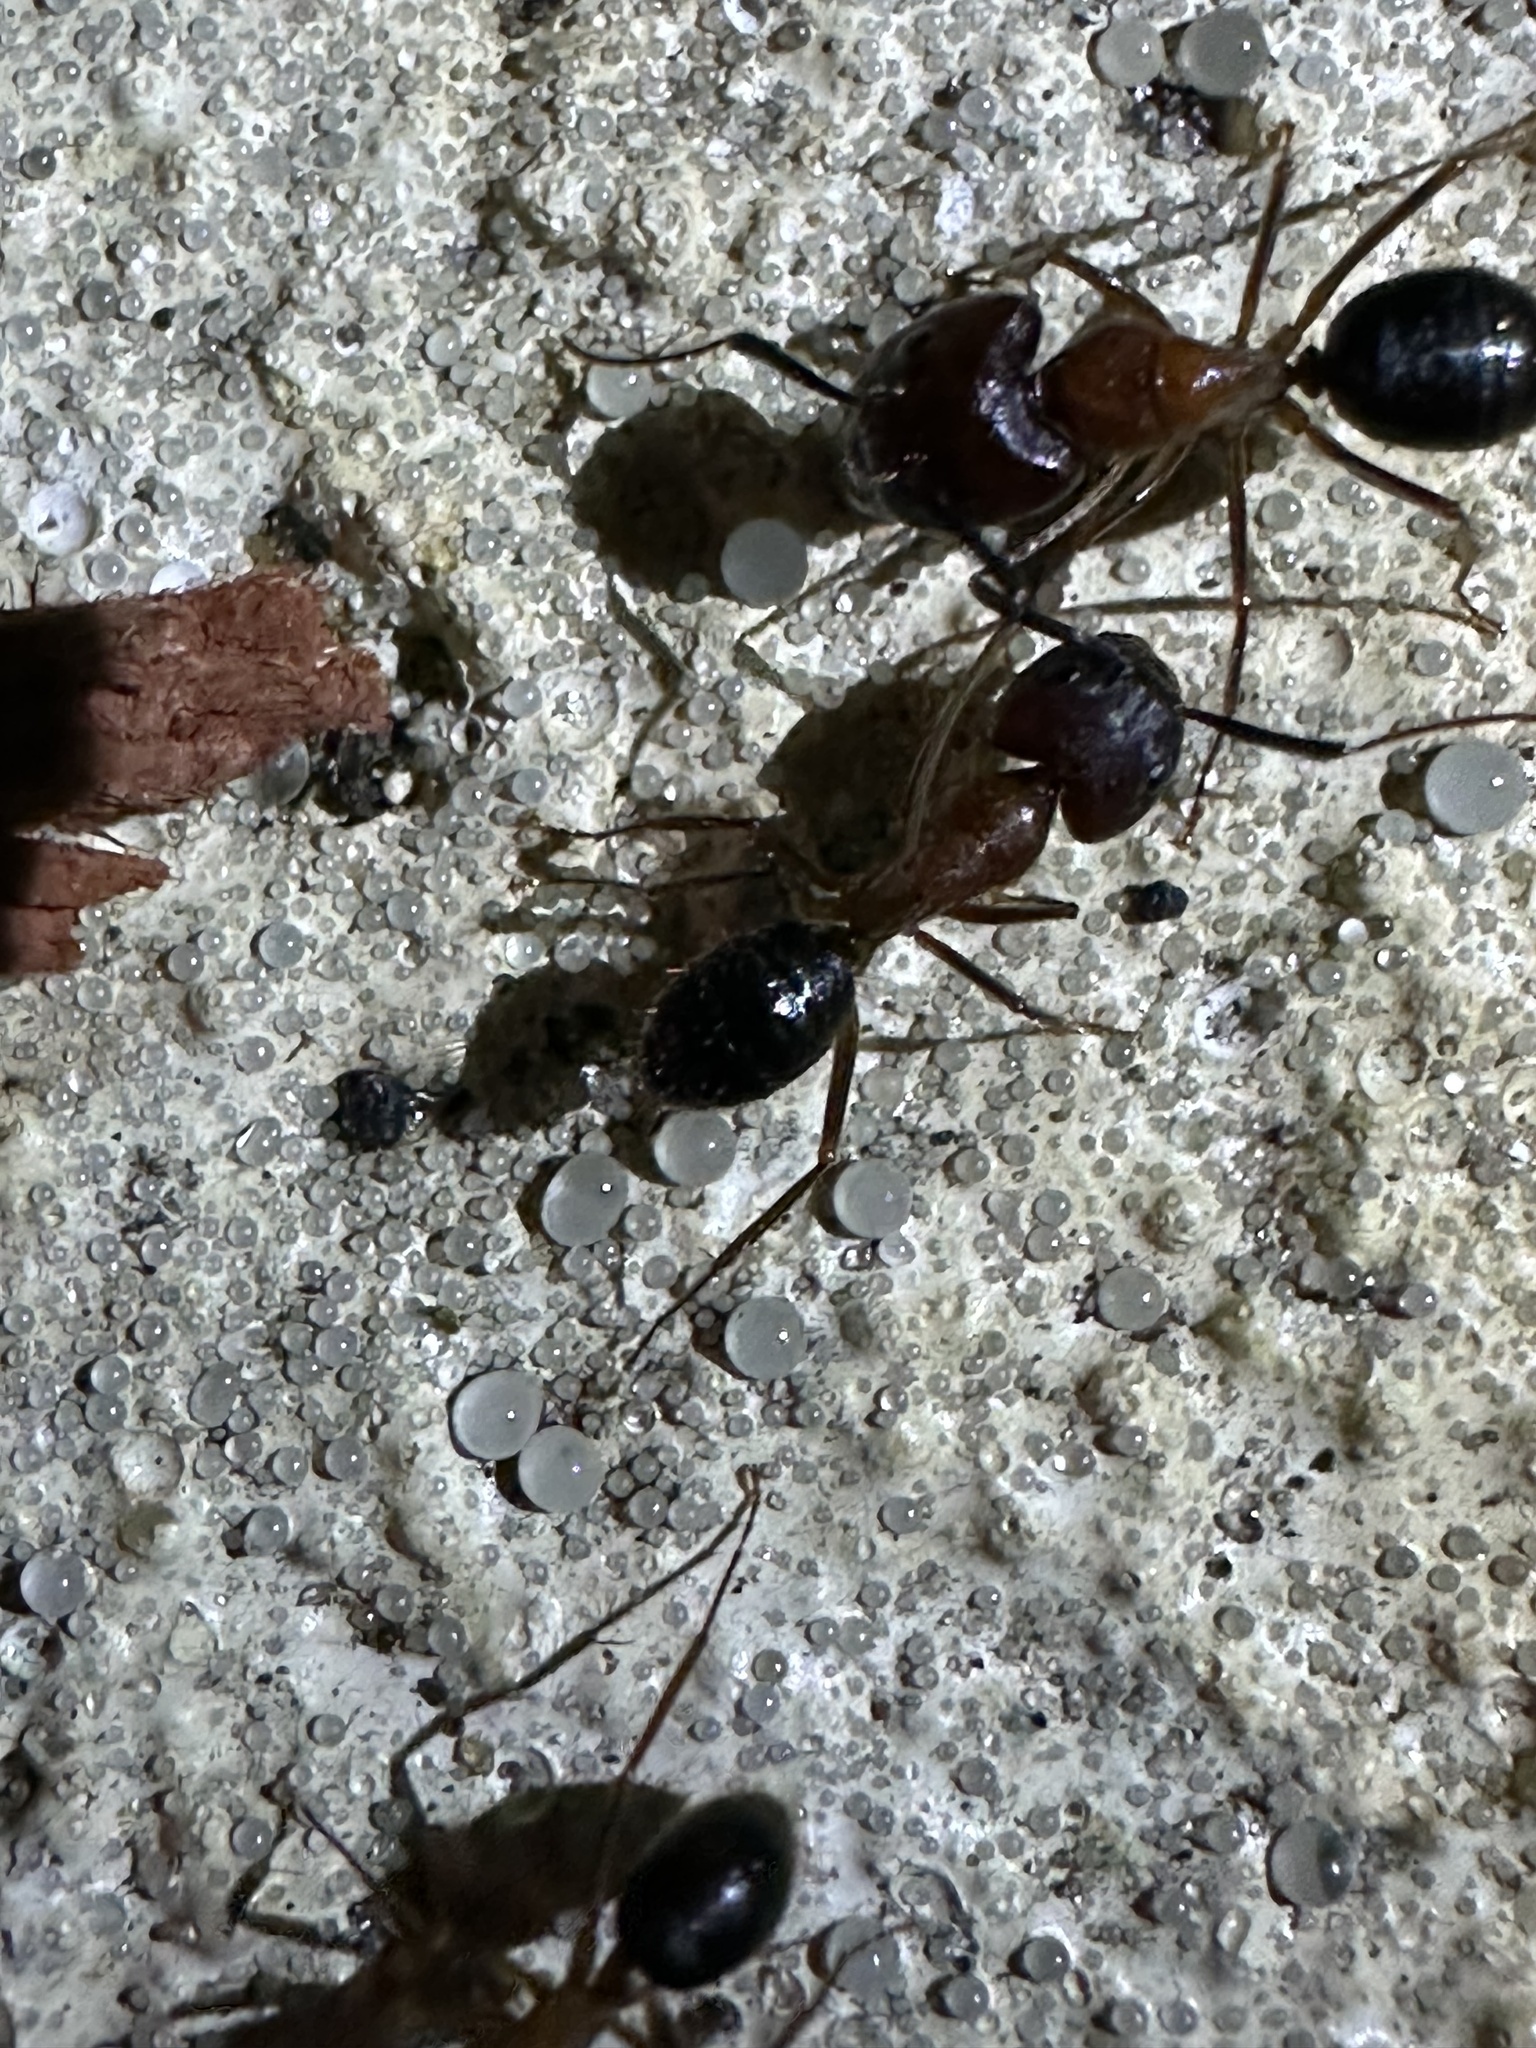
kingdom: Animalia
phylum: Arthropoda
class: Insecta
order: Hymenoptera
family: Formicidae
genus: Camponotus
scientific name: Camponotus floridanus
